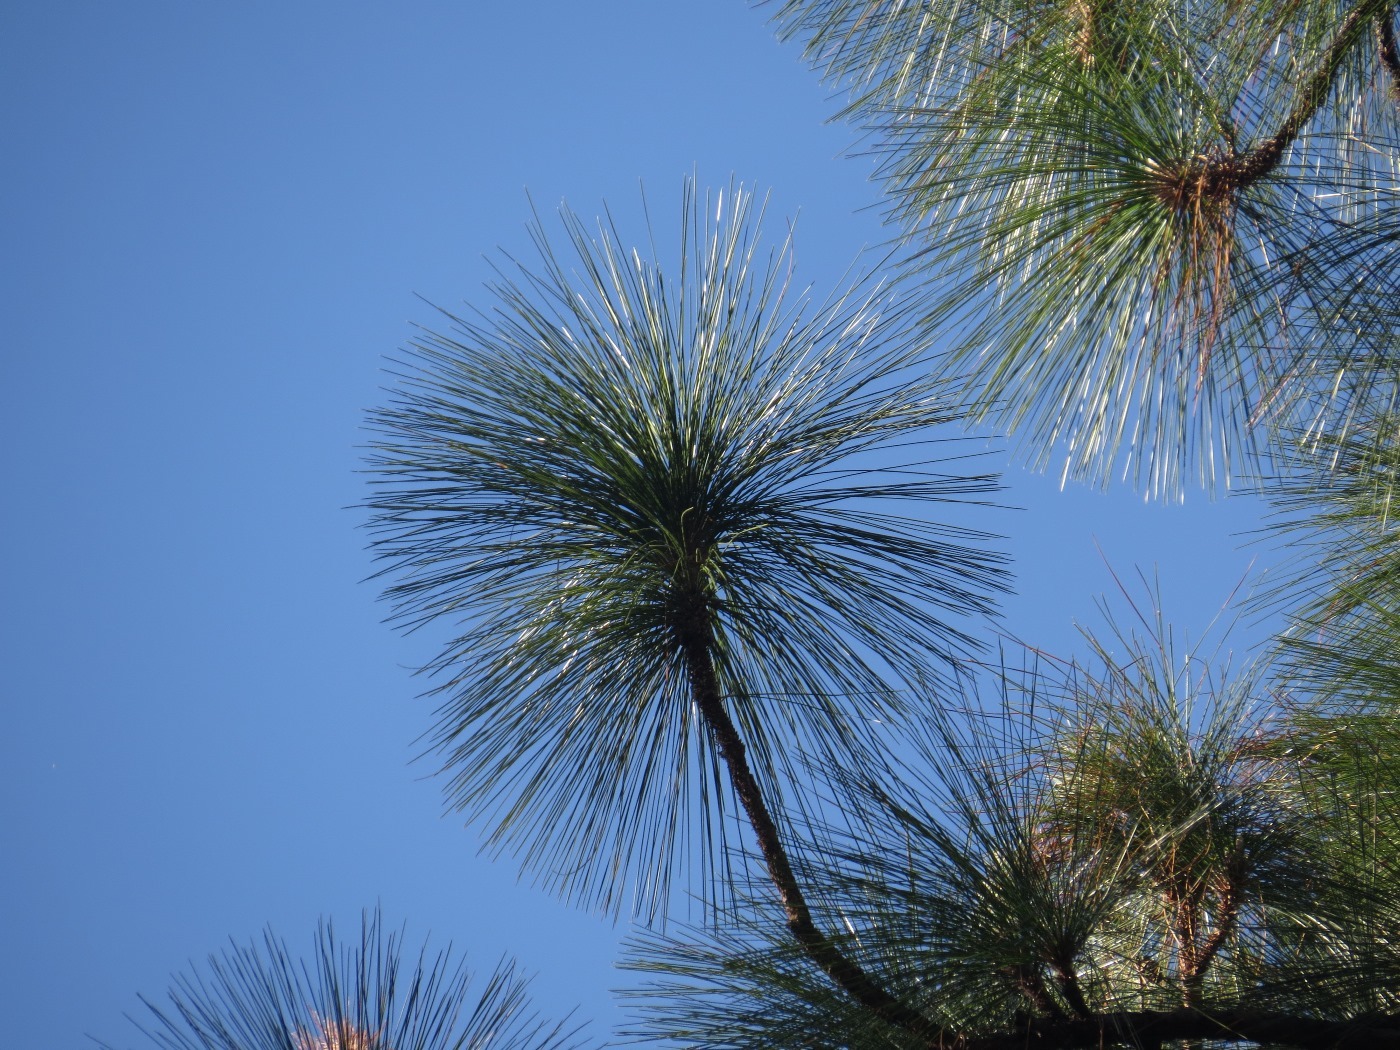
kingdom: Plantae
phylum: Tracheophyta
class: Pinopsida
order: Pinales
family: Pinaceae
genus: Pinus
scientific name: Pinus palustris
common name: Longleaf pine
